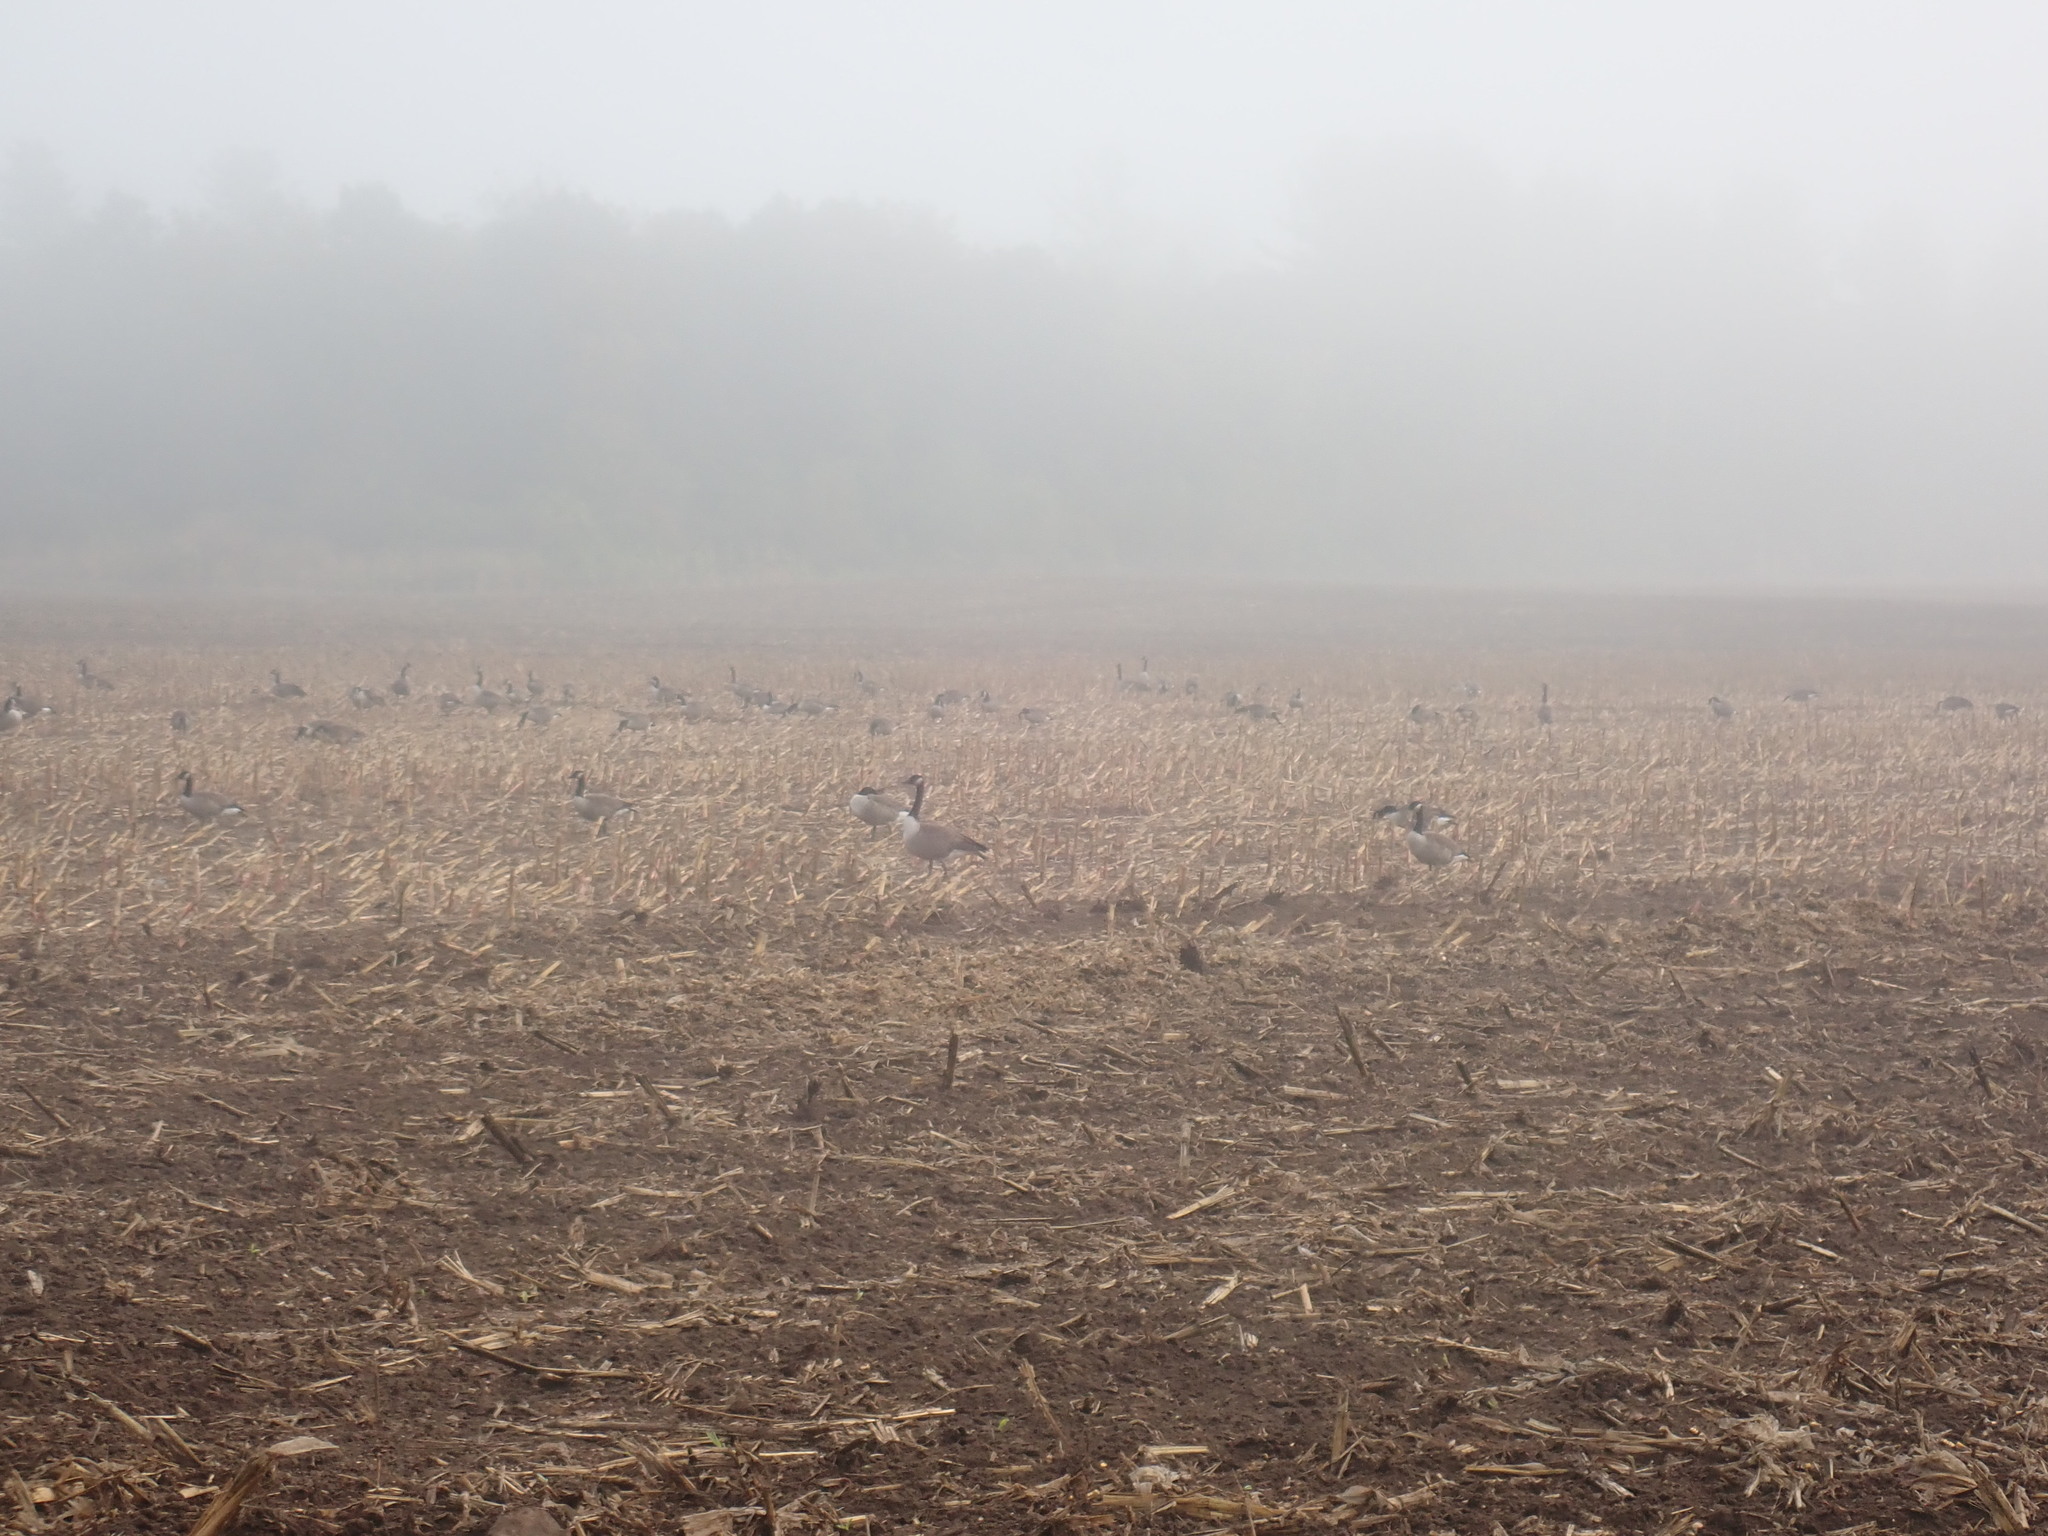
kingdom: Animalia
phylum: Chordata
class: Aves
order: Anseriformes
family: Anatidae
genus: Branta
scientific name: Branta canadensis
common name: Canada goose
